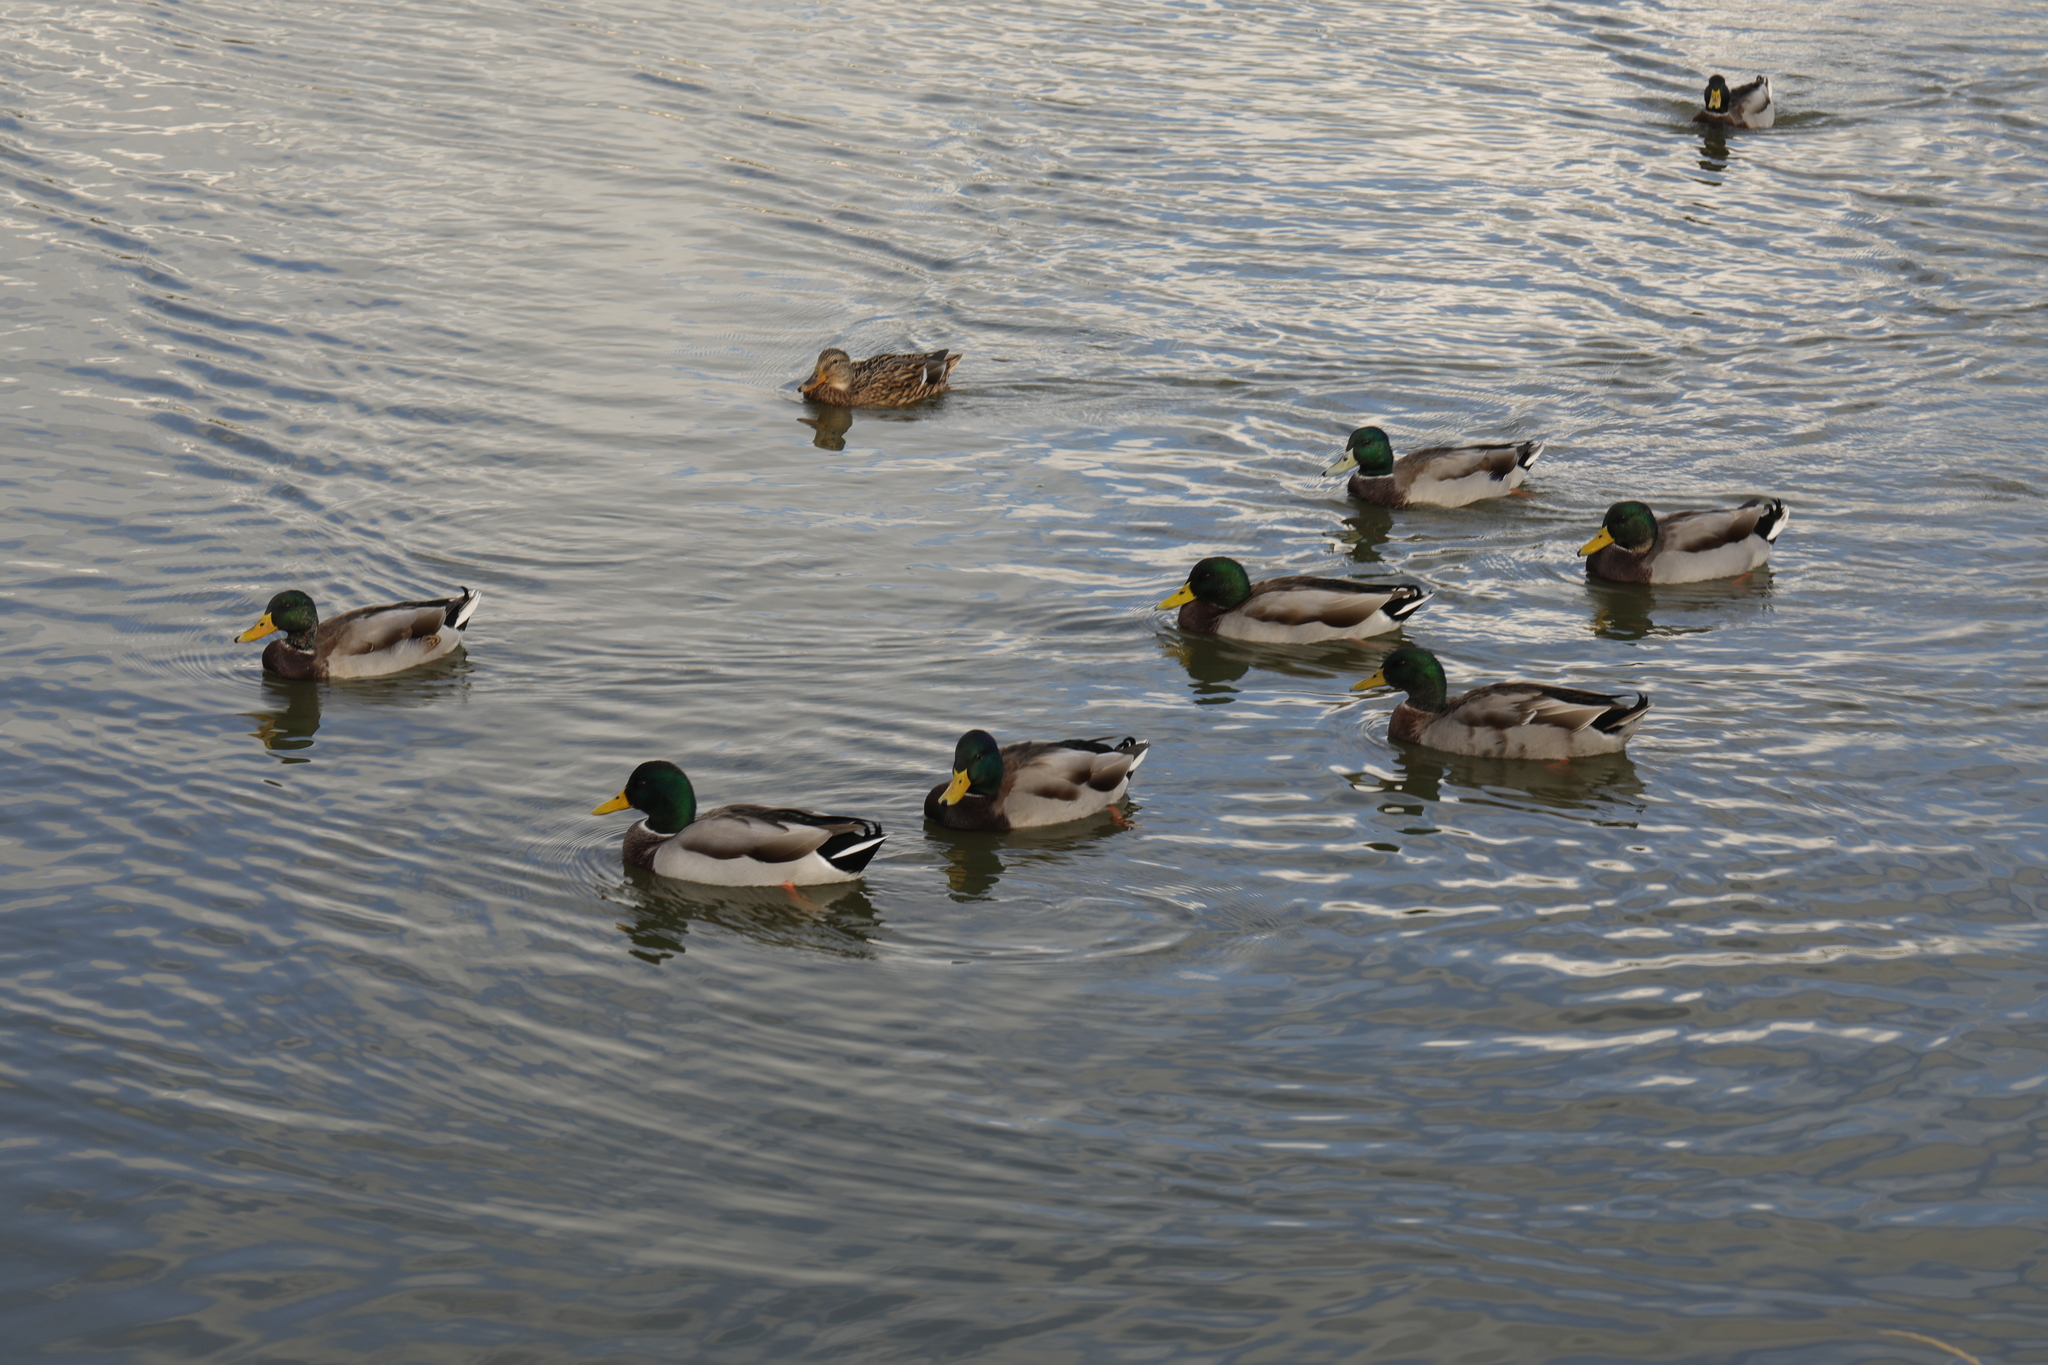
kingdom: Animalia
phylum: Chordata
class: Aves
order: Anseriformes
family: Anatidae
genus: Anas
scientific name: Anas platyrhynchos
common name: Mallard
